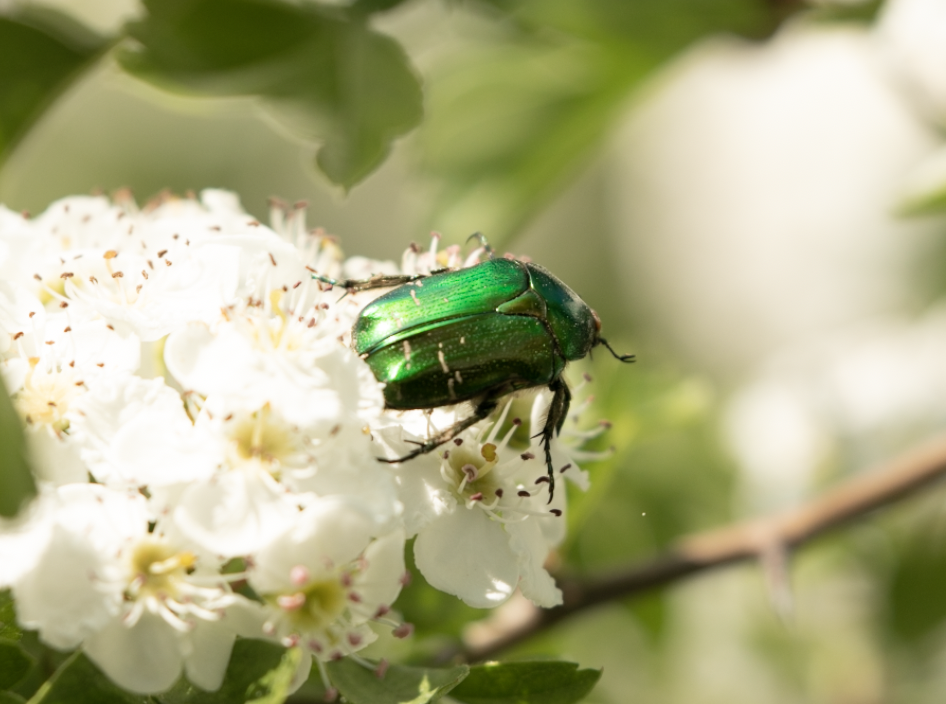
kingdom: Animalia
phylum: Arthropoda
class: Insecta
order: Coleoptera
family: Scarabaeidae
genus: Cetonia
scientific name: Cetonia aurata
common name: Rose chafer
